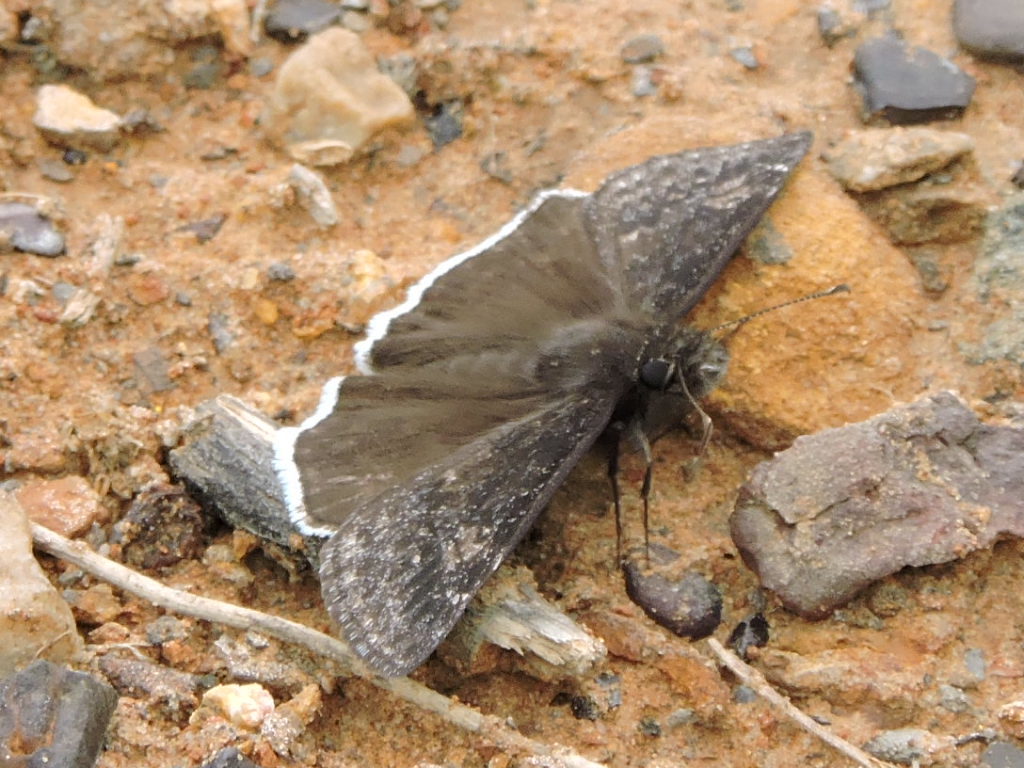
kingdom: Animalia
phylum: Arthropoda
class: Insecta
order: Lepidoptera
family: Hesperiidae
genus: Erynnis
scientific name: Erynnis funeralis
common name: Funereal duskywing
